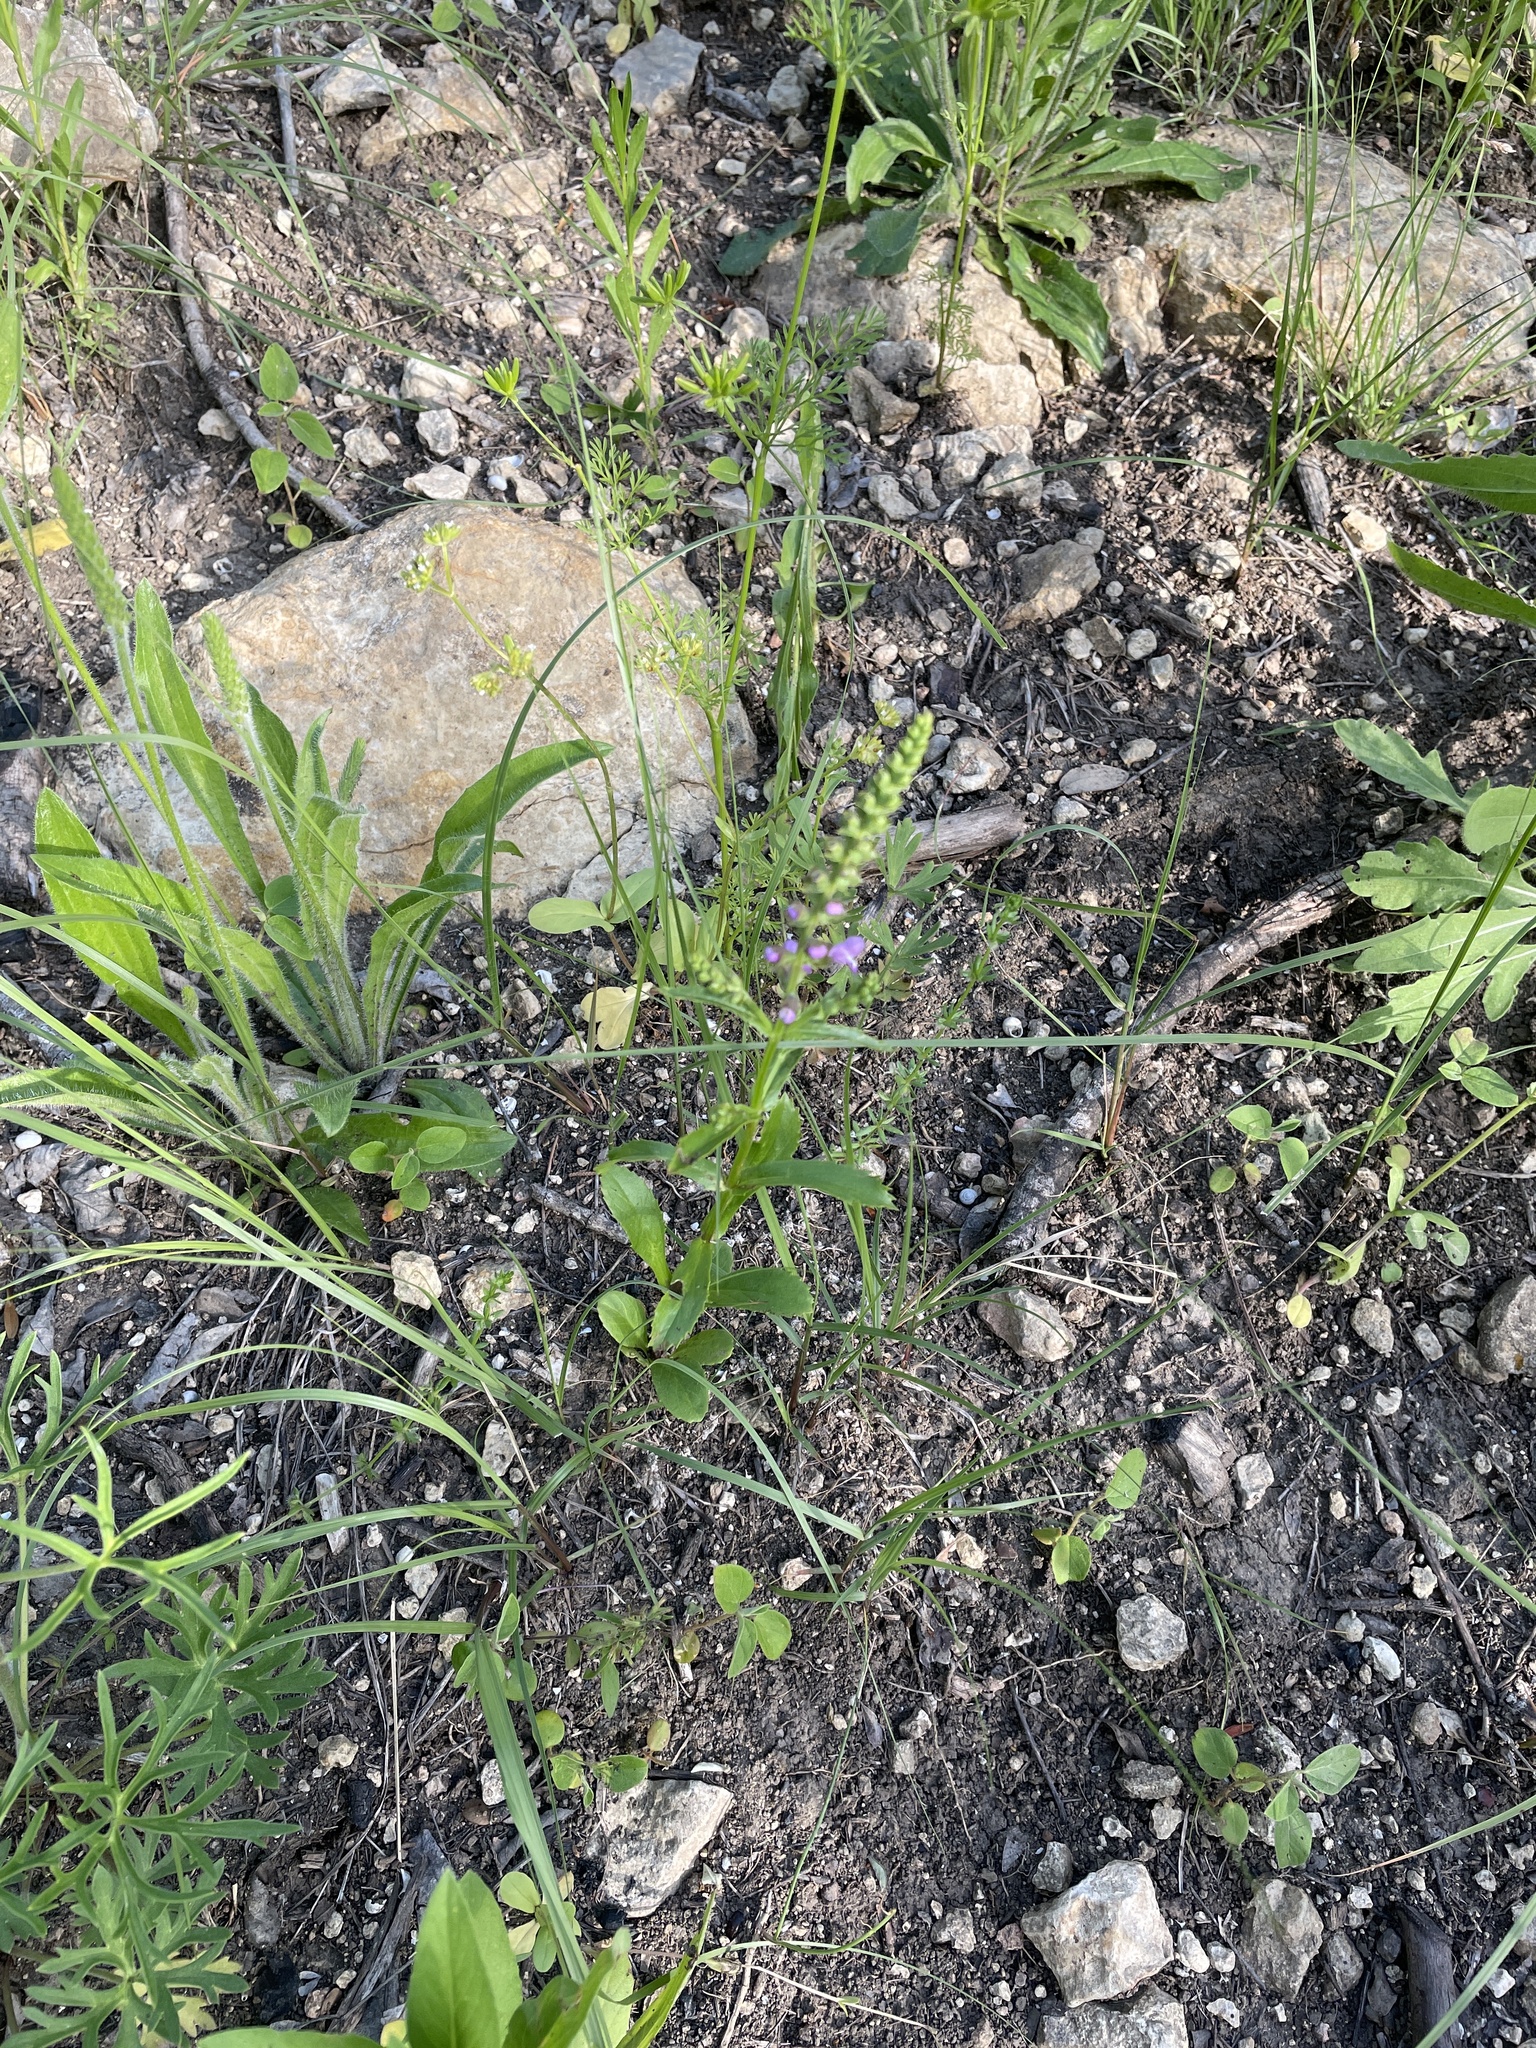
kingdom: Plantae
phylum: Tracheophyta
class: Magnoliopsida
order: Lamiales
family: Lamiaceae
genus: Warnockia
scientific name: Warnockia scutellarioides
